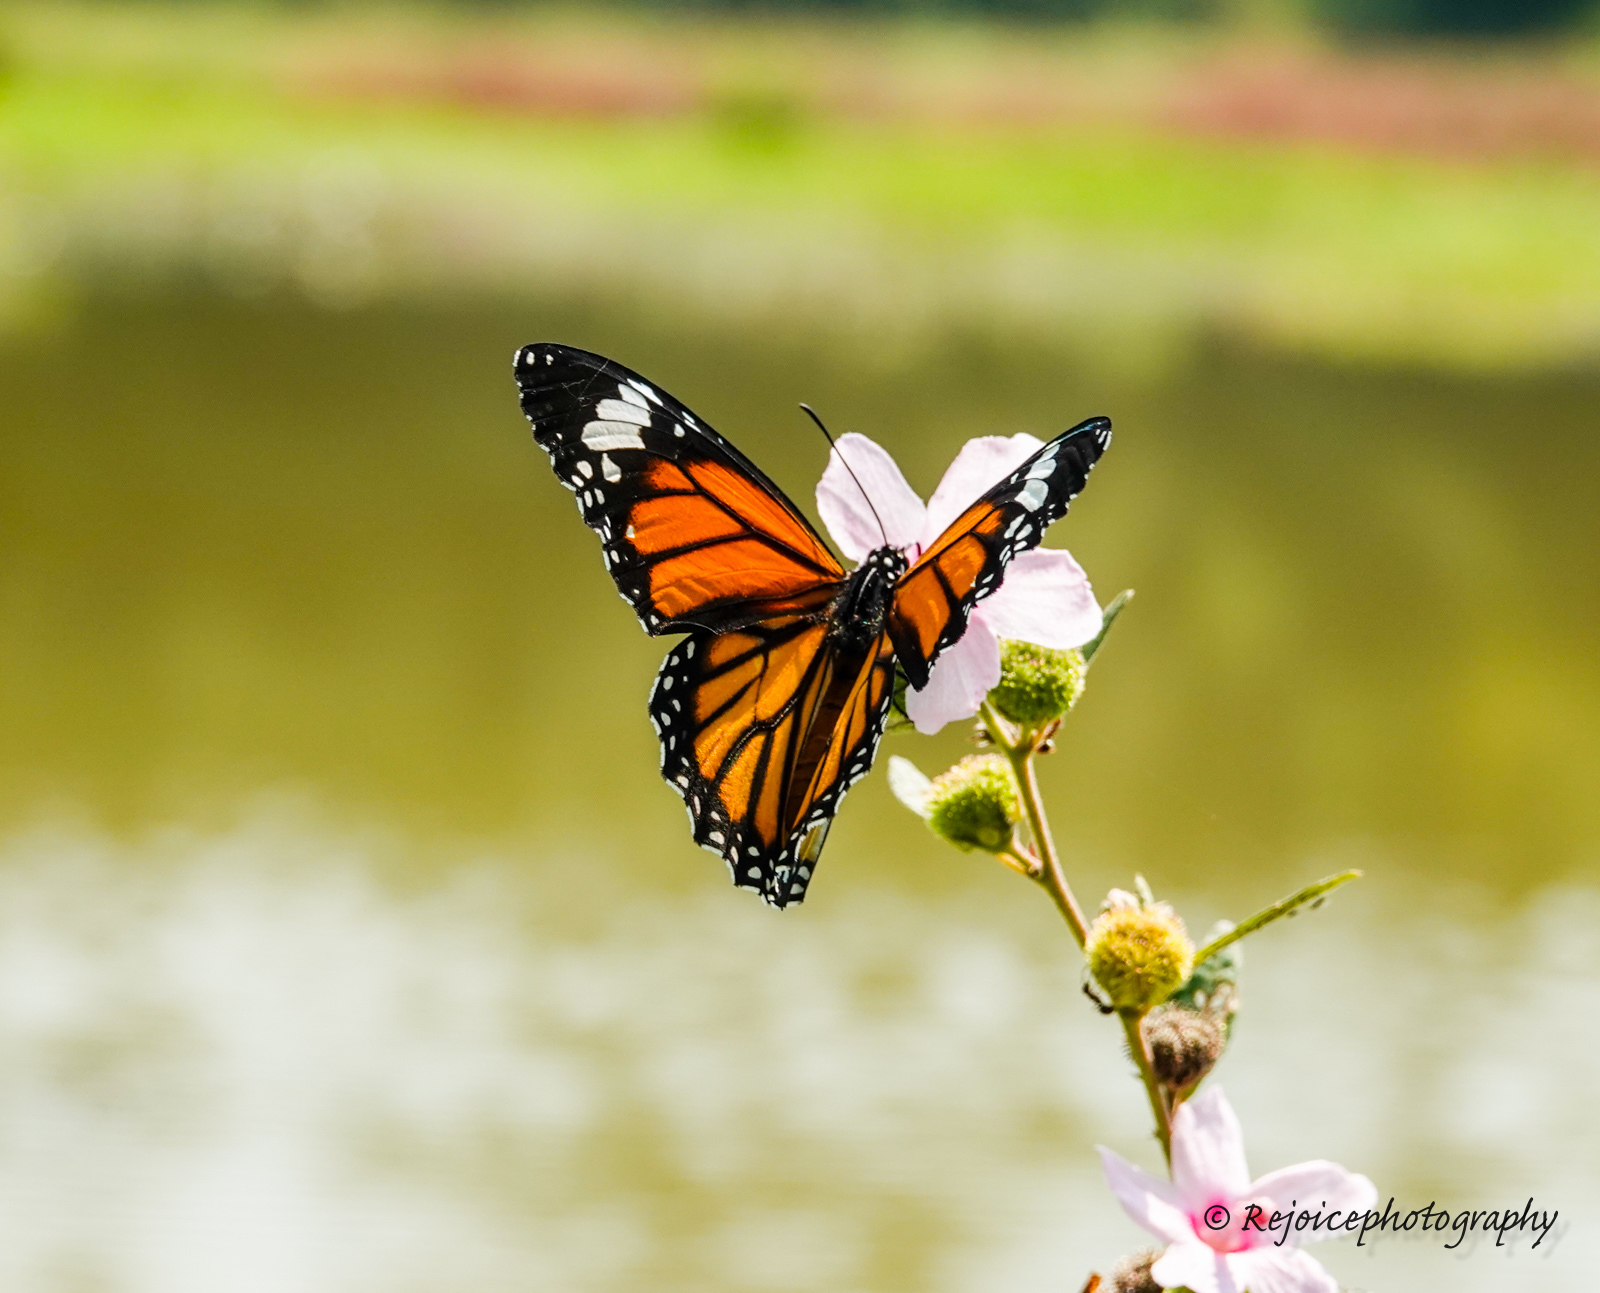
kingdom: Animalia
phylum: Arthropoda
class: Insecta
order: Lepidoptera
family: Nymphalidae
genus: Danaus
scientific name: Danaus genutia
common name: Common tiger butterfly
